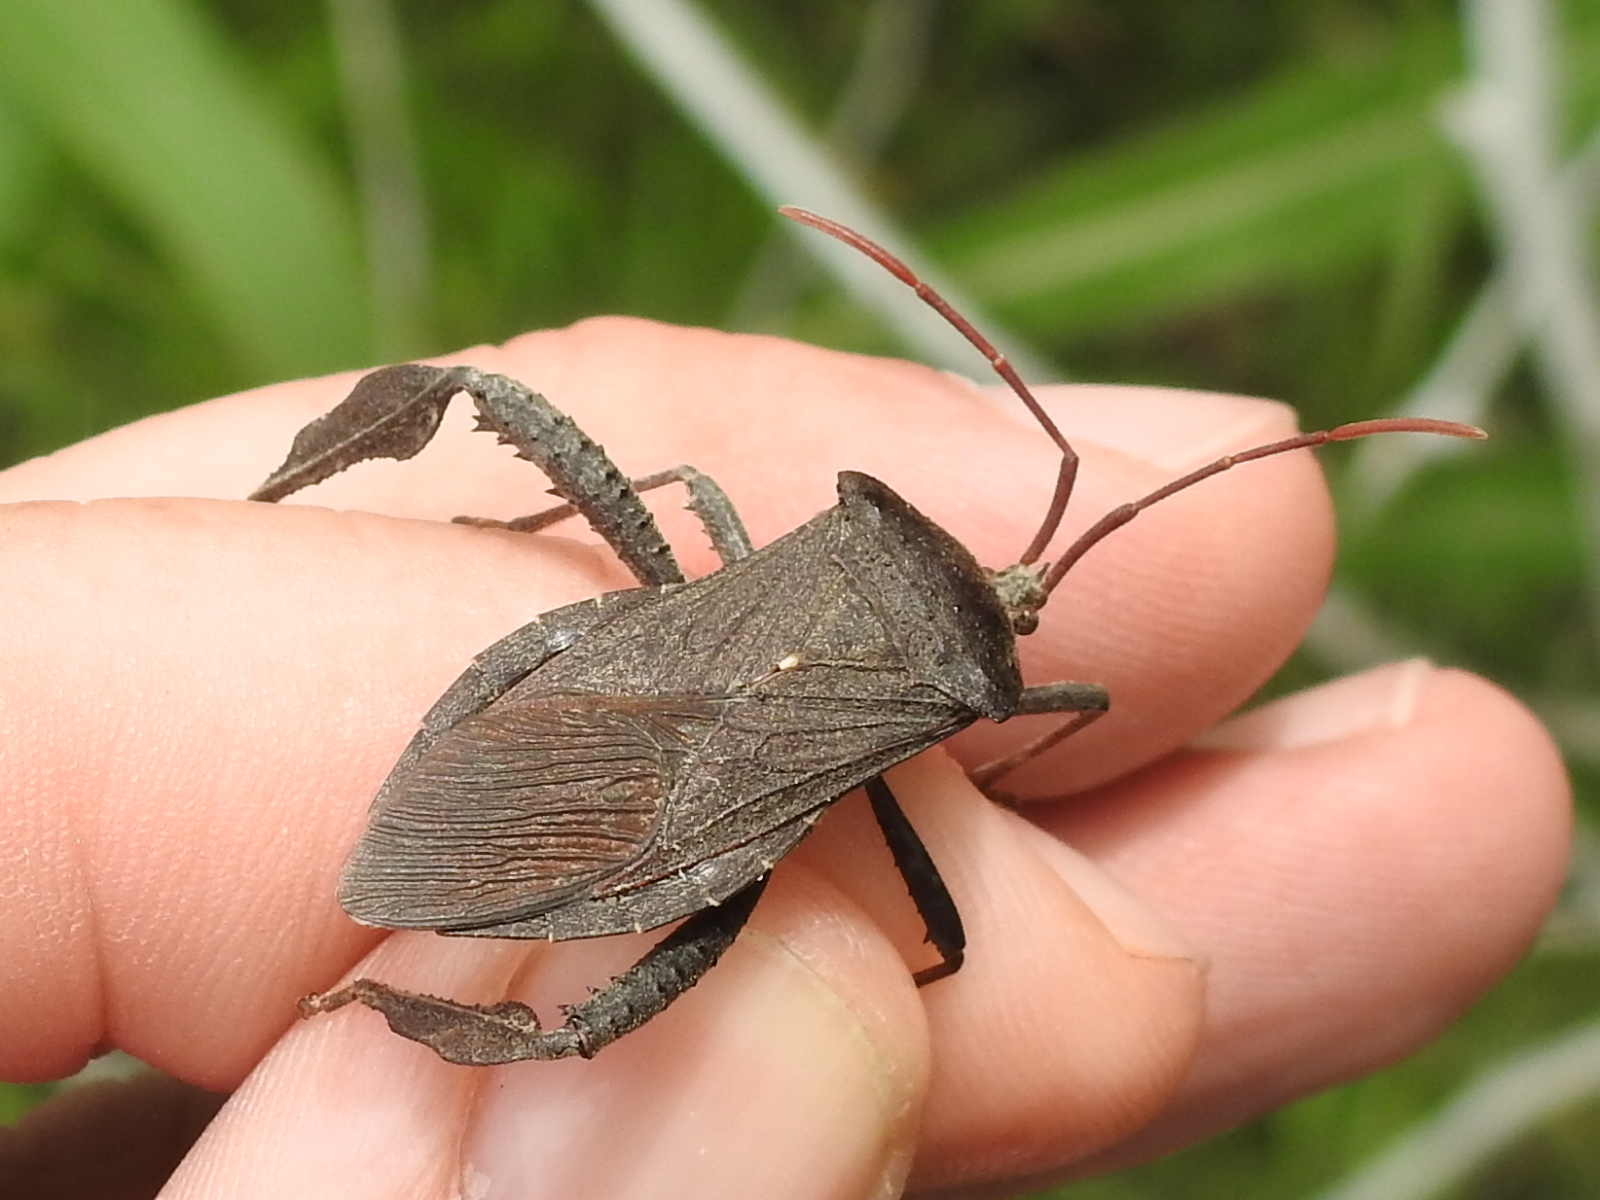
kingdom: Animalia
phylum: Arthropoda
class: Insecta
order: Hemiptera
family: Coreidae
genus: Acanthocephala
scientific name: Acanthocephala femorata
